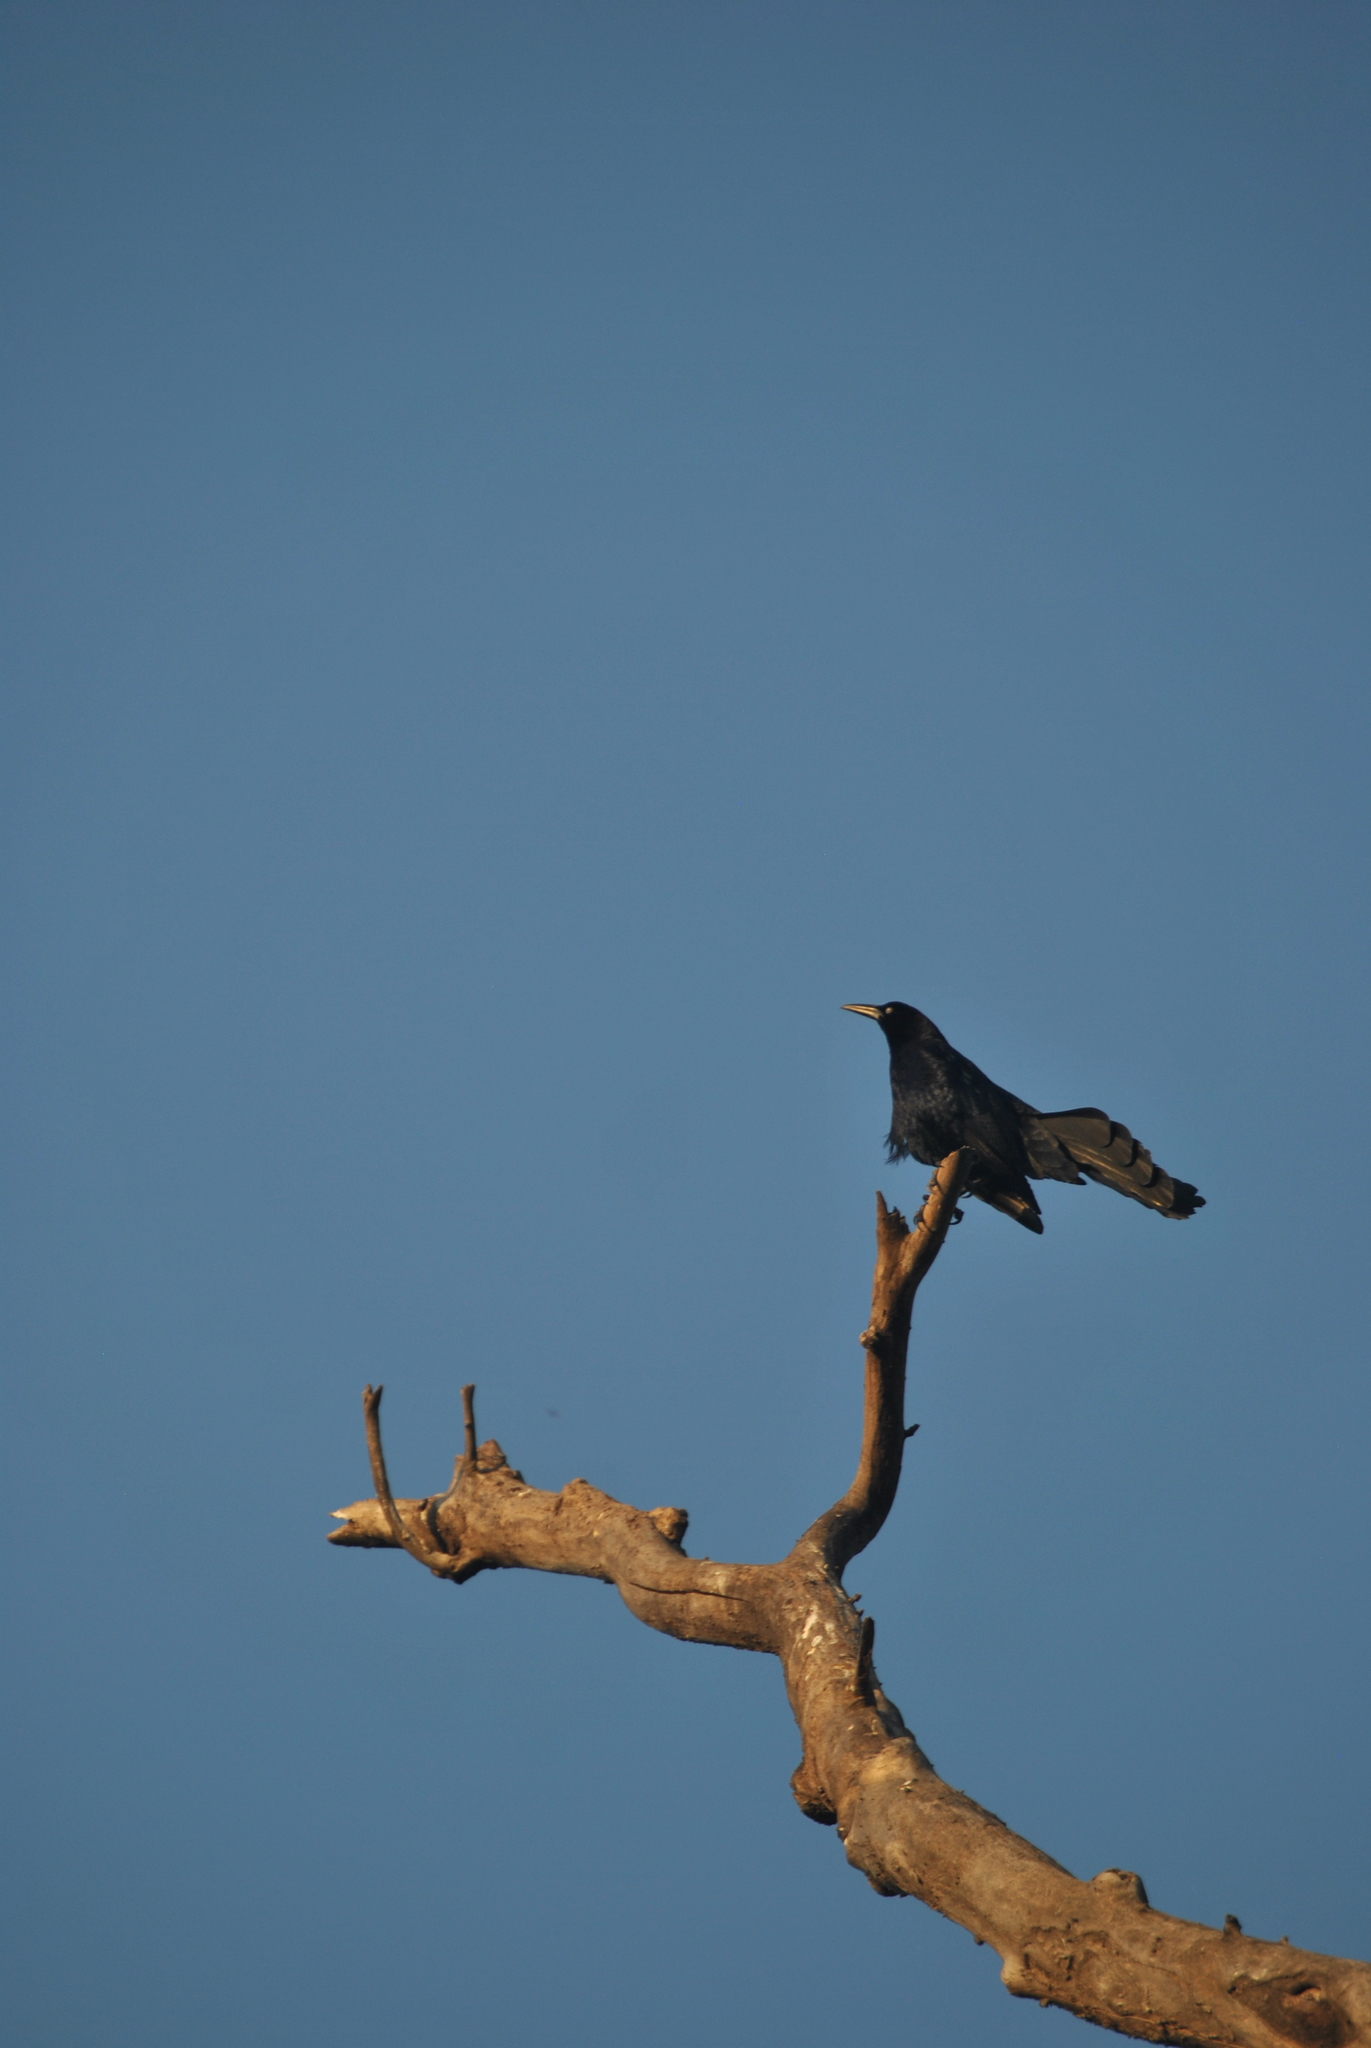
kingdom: Animalia
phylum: Chordata
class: Aves
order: Passeriformes
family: Icteridae
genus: Quiscalus
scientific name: Quiscalus mexicanus
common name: Great-tailed grackle
